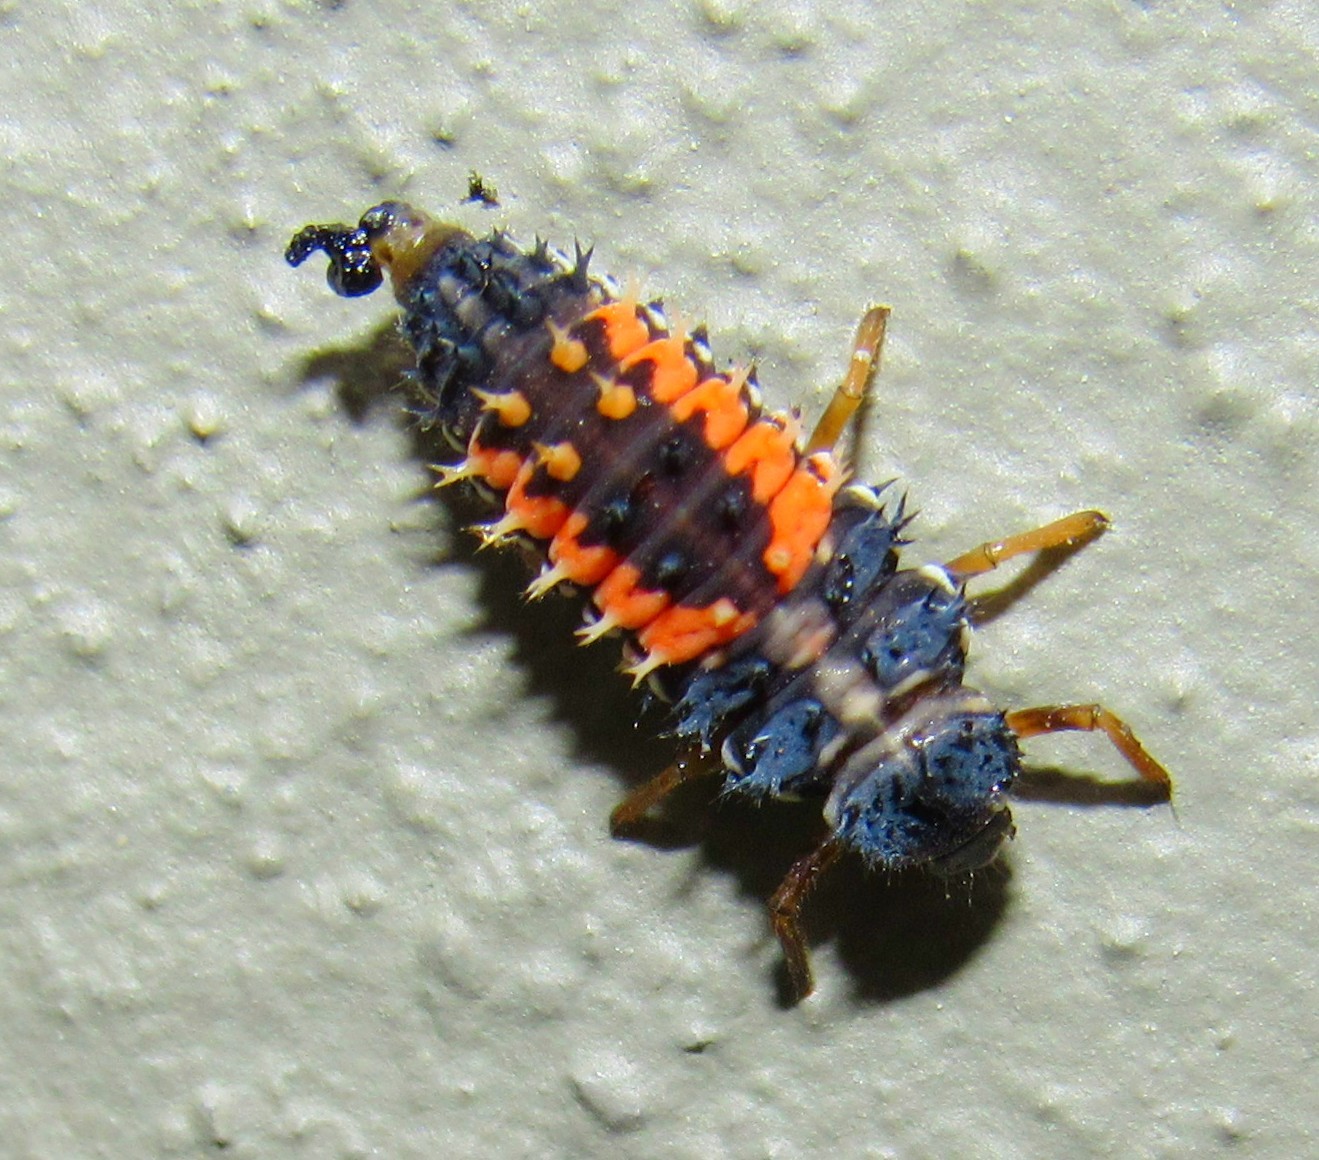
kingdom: Animalia
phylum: Arthropoda
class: Insecta
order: Coleoptera
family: Coccinellidae
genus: Harmonia
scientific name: Harmonia axyridis
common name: Harlequin ladybird
